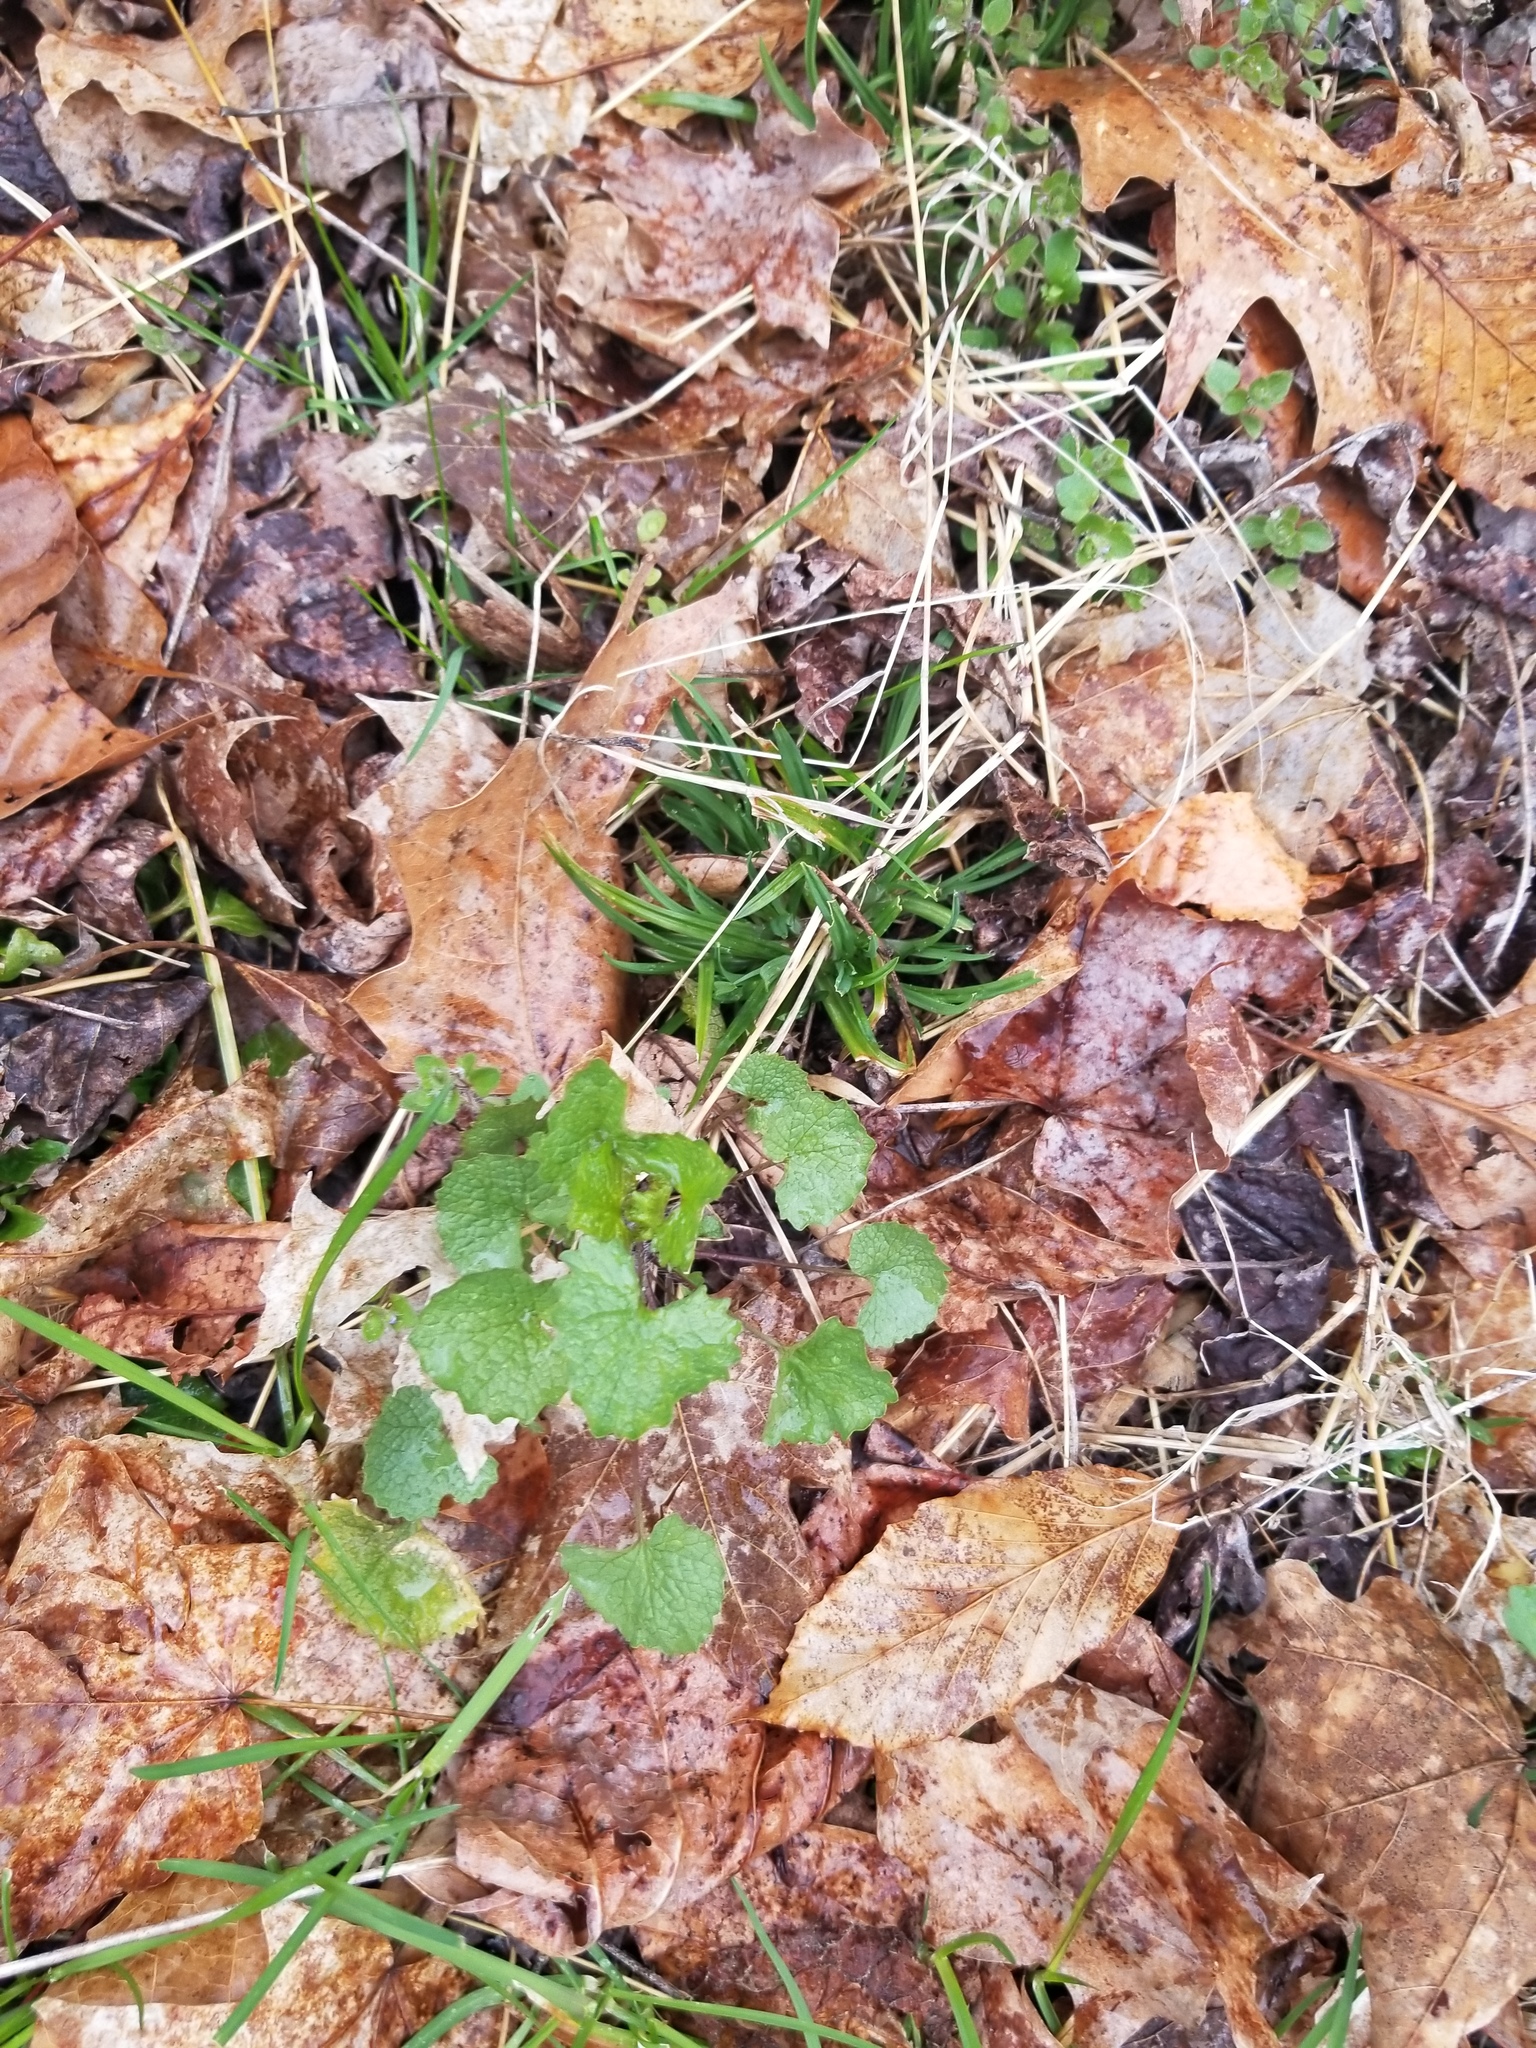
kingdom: Plantae
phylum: Tracheophyta
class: Magnoliopsida
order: Brassicales
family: Brassicaceae
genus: Alliaria
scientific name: Alliaria petiolata
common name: Garlic mustard
